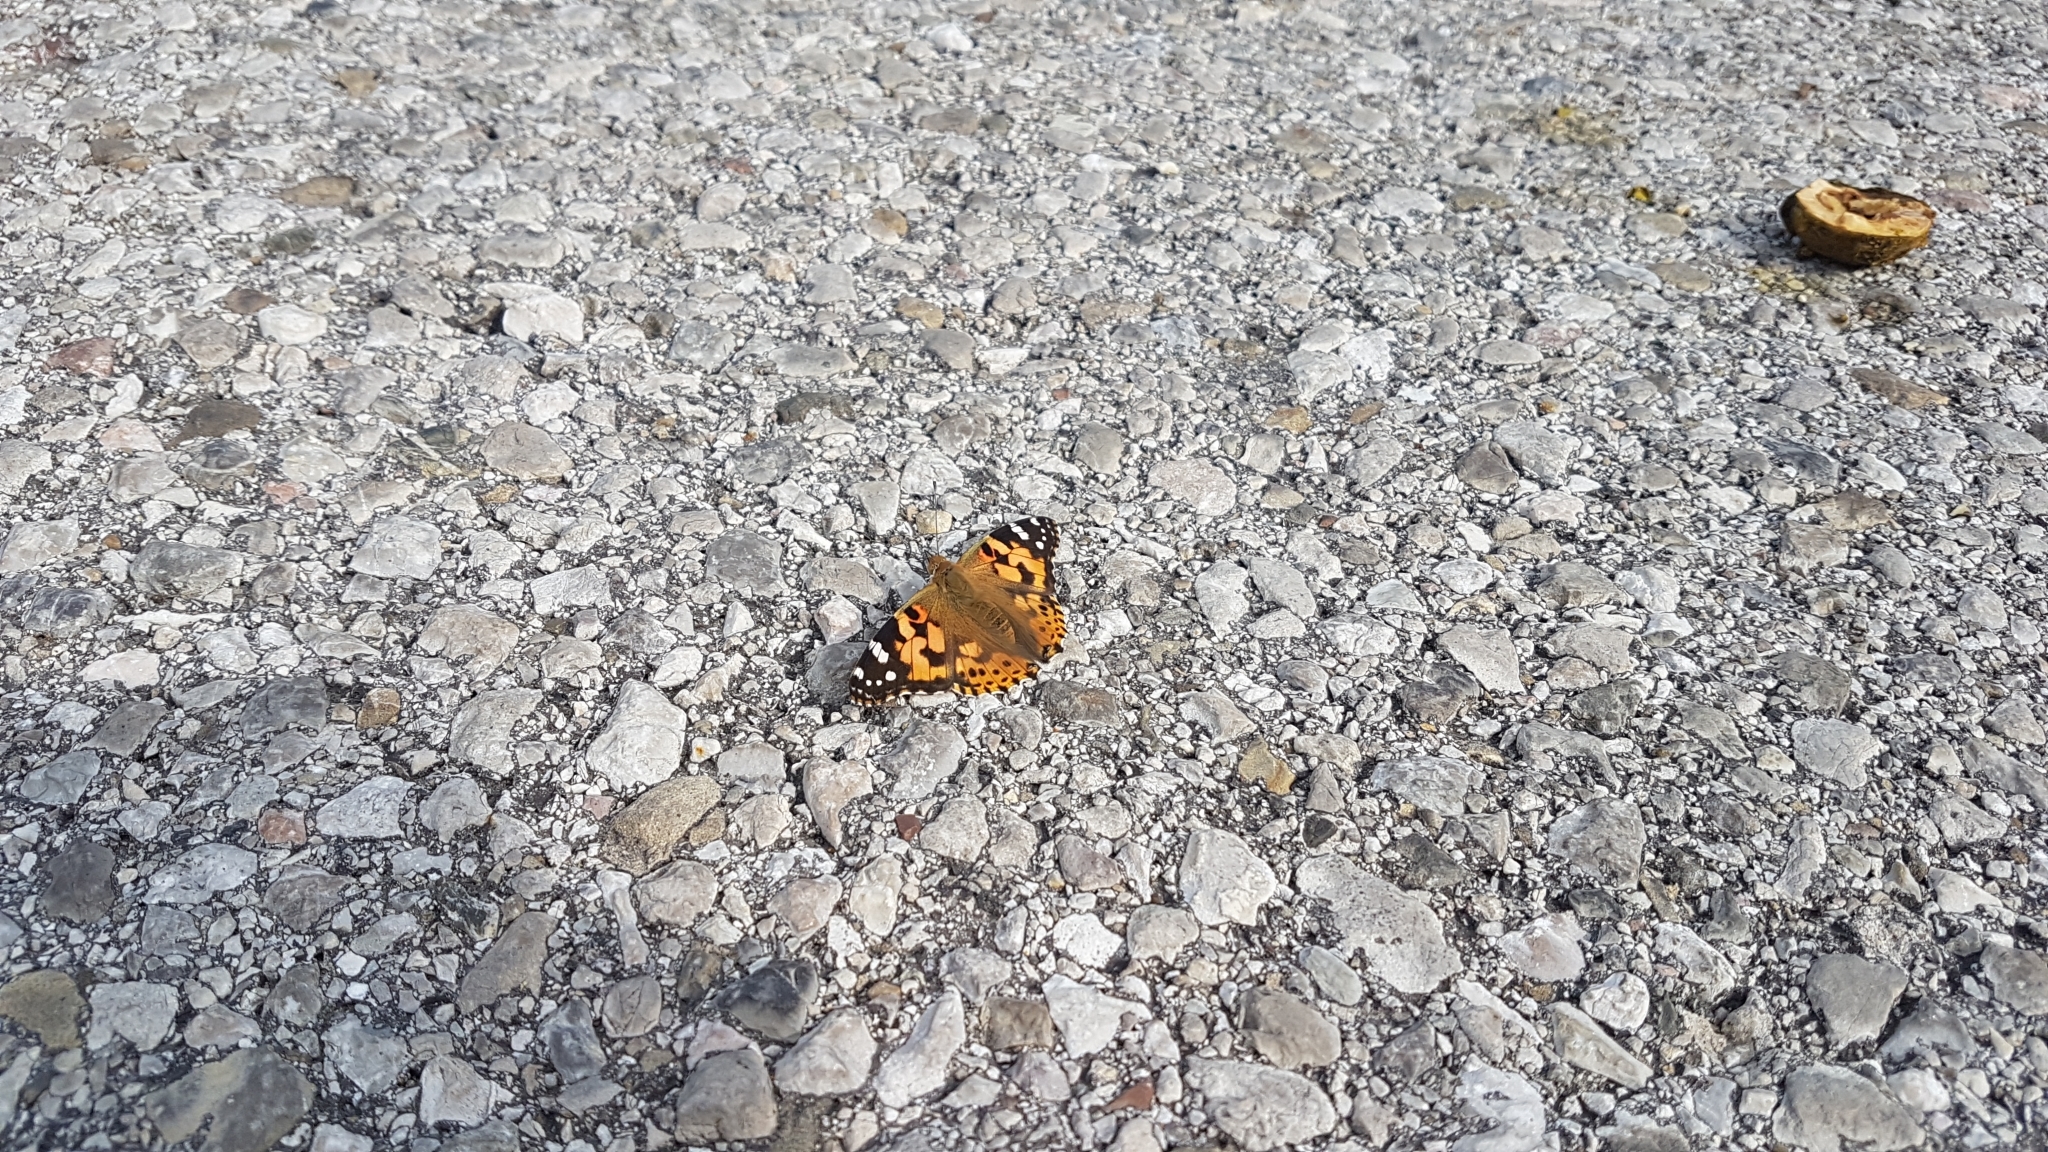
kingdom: Animalia
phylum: Arthropoda
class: Insecta
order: Lepidoptera
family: Nymphalidae
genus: Vanessa
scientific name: Vanessa cardui
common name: Painted lady
